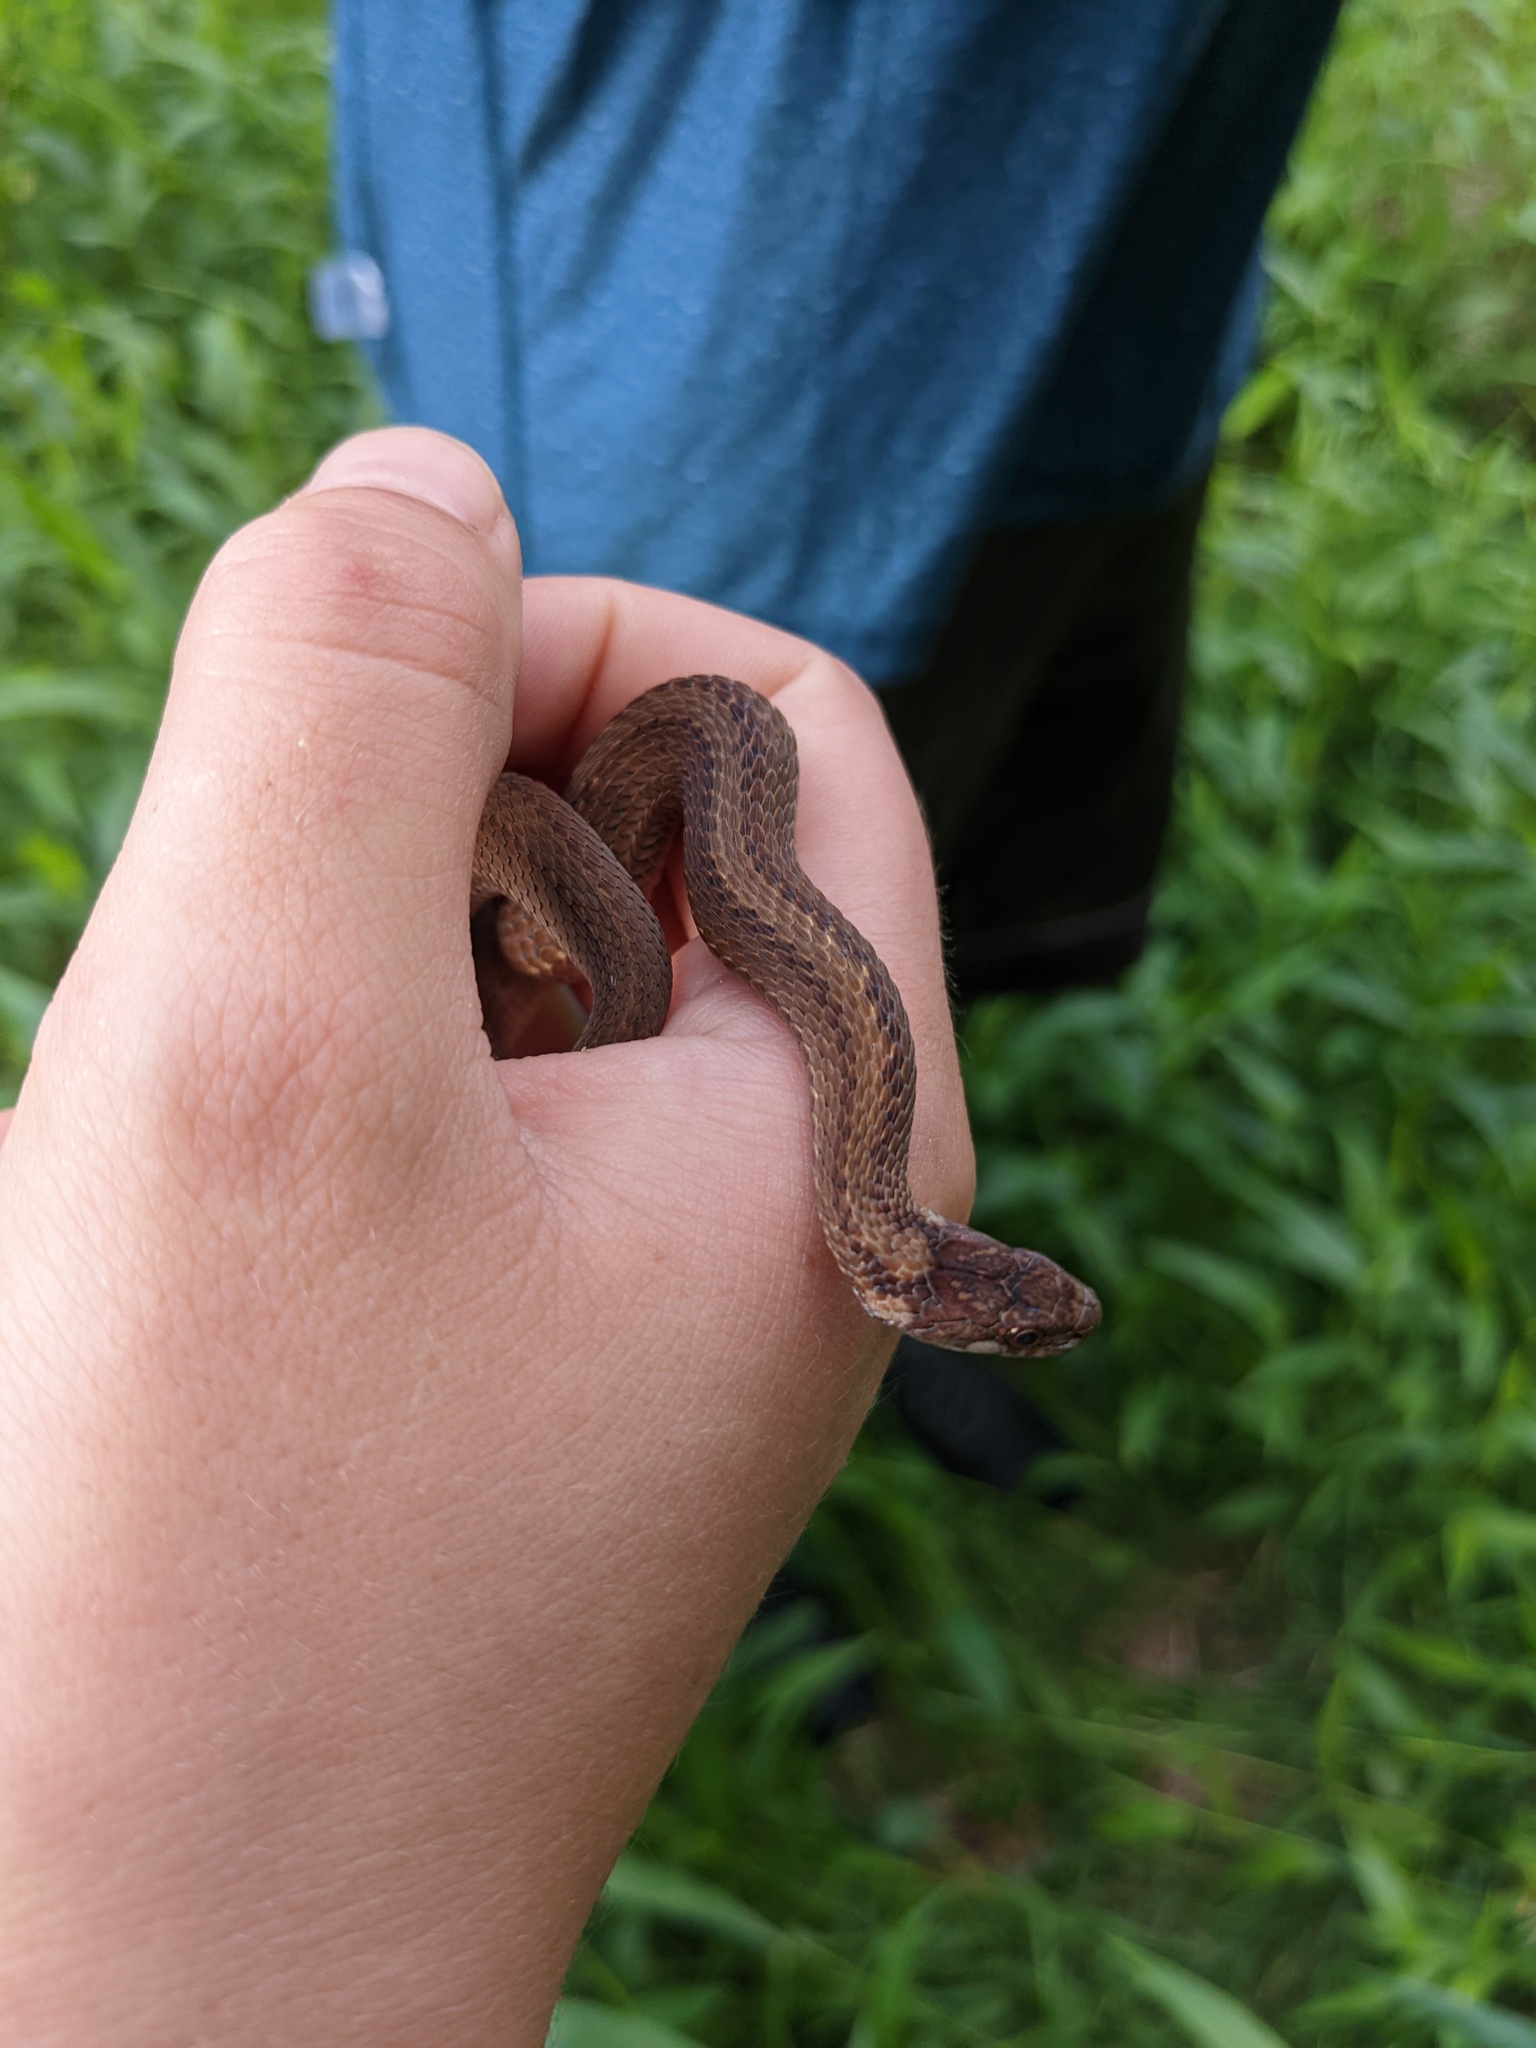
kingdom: Animalia
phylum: Chordata
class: Squamata
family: Colubridae
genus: Storeria
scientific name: Storeria occipitomaculata
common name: Redbelly snake
